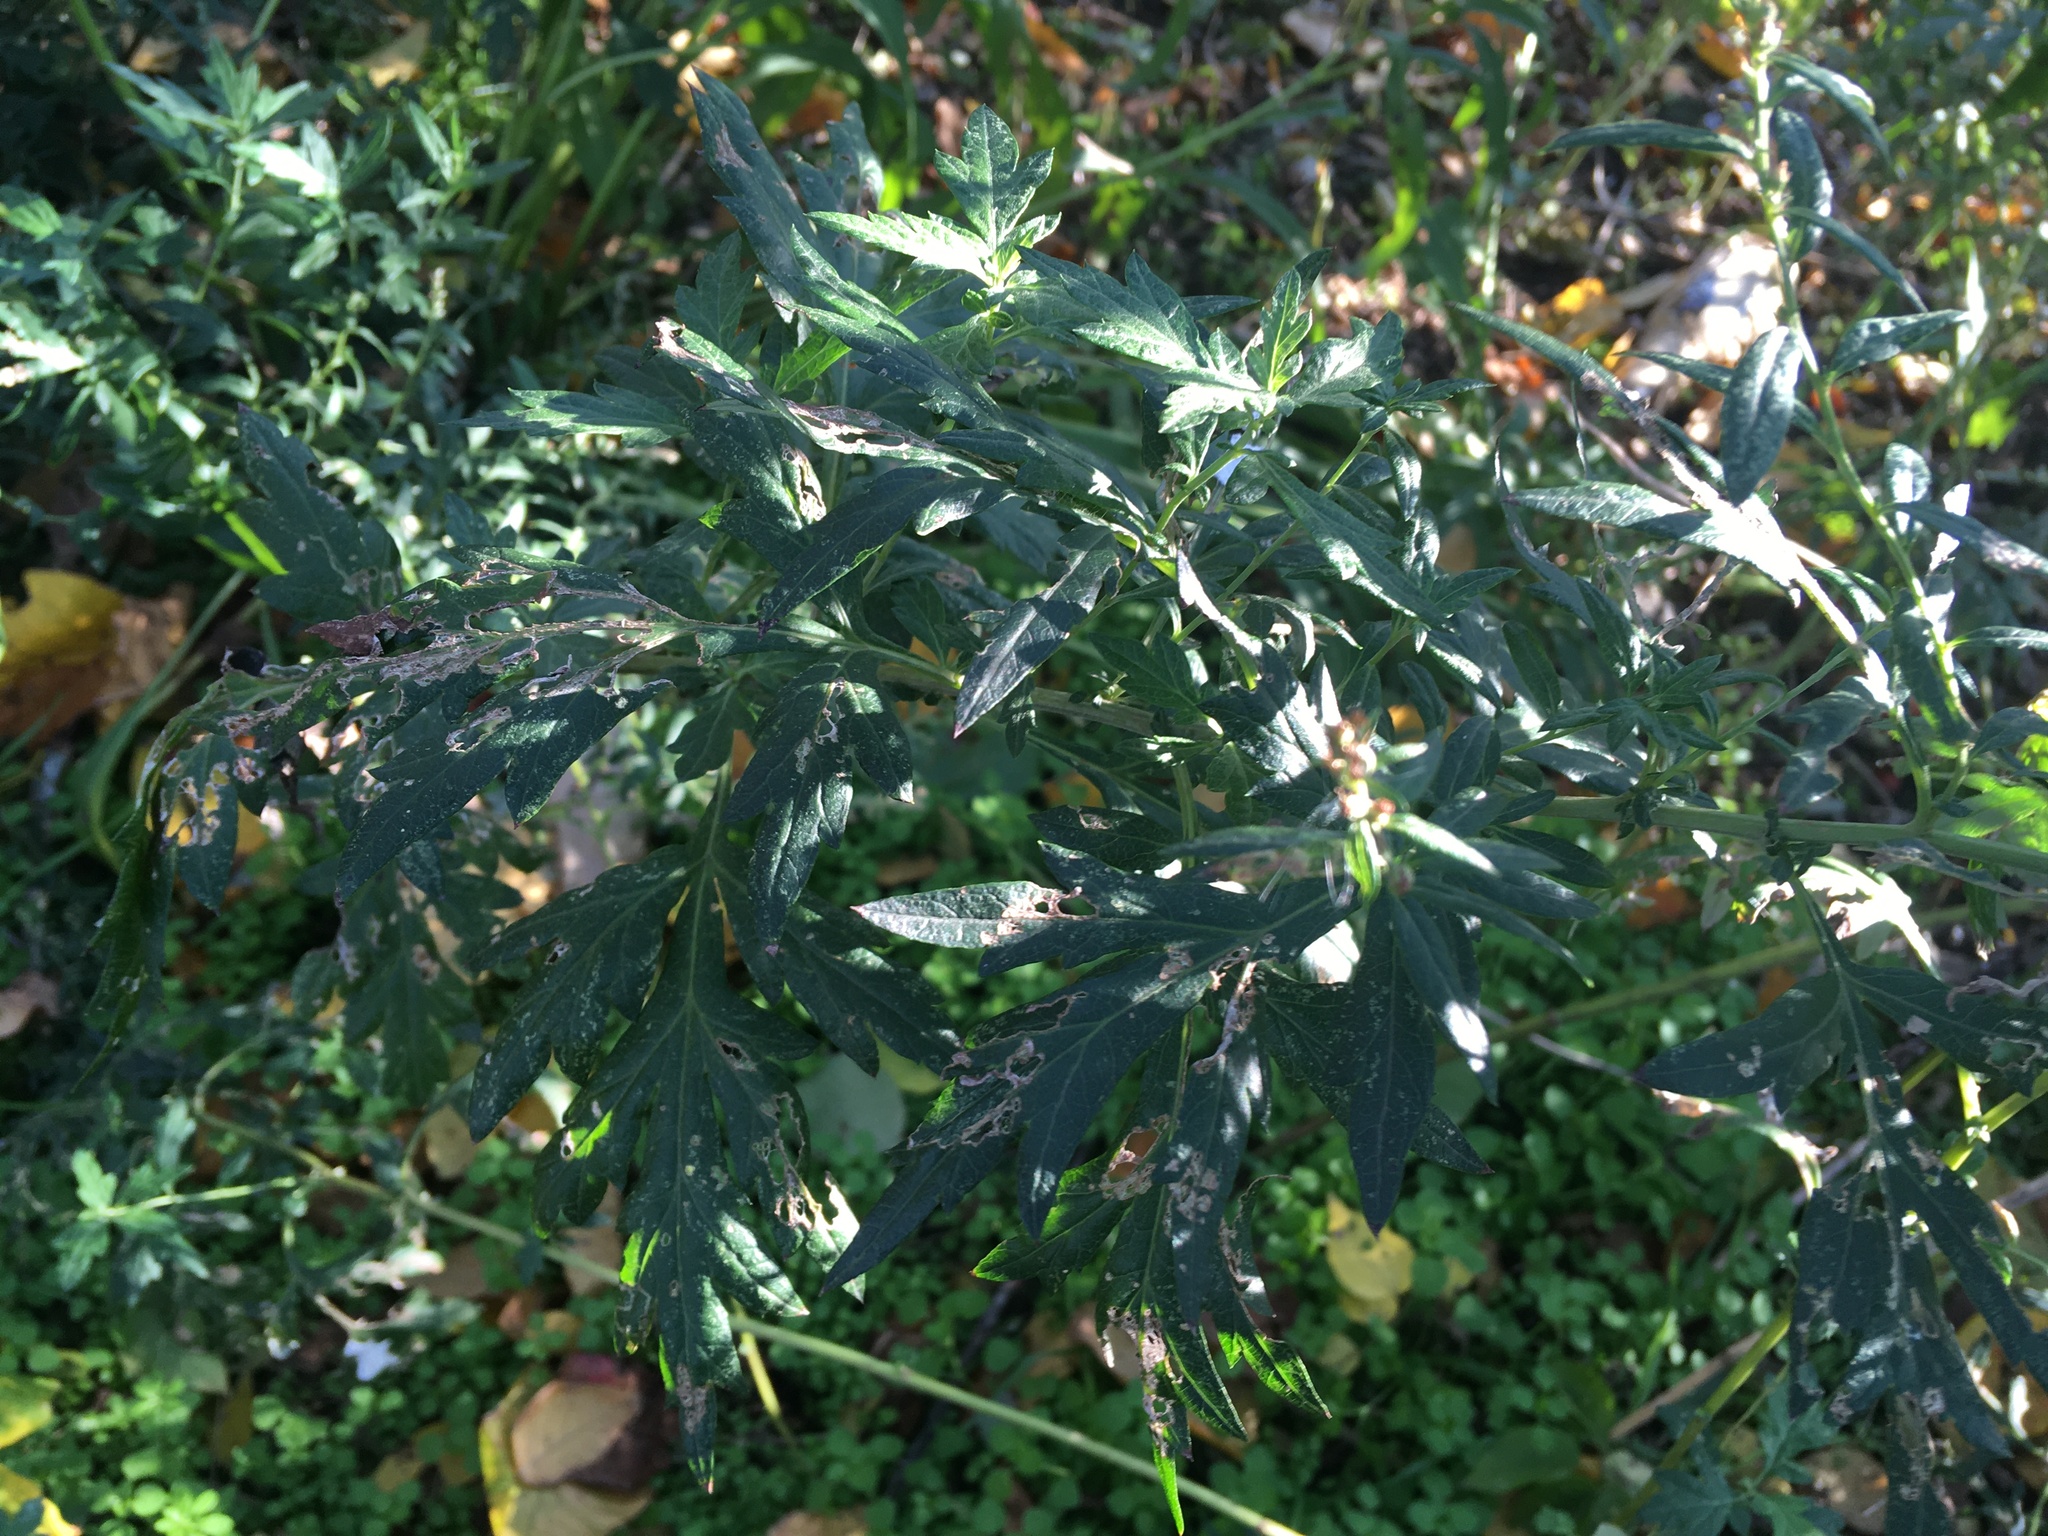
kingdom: Plantae
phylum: Tracheophyta
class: Magnoliopsida
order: Asterales
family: Asteraceae
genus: Artemisia
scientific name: Artemisia vulgaris
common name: Mugwort
